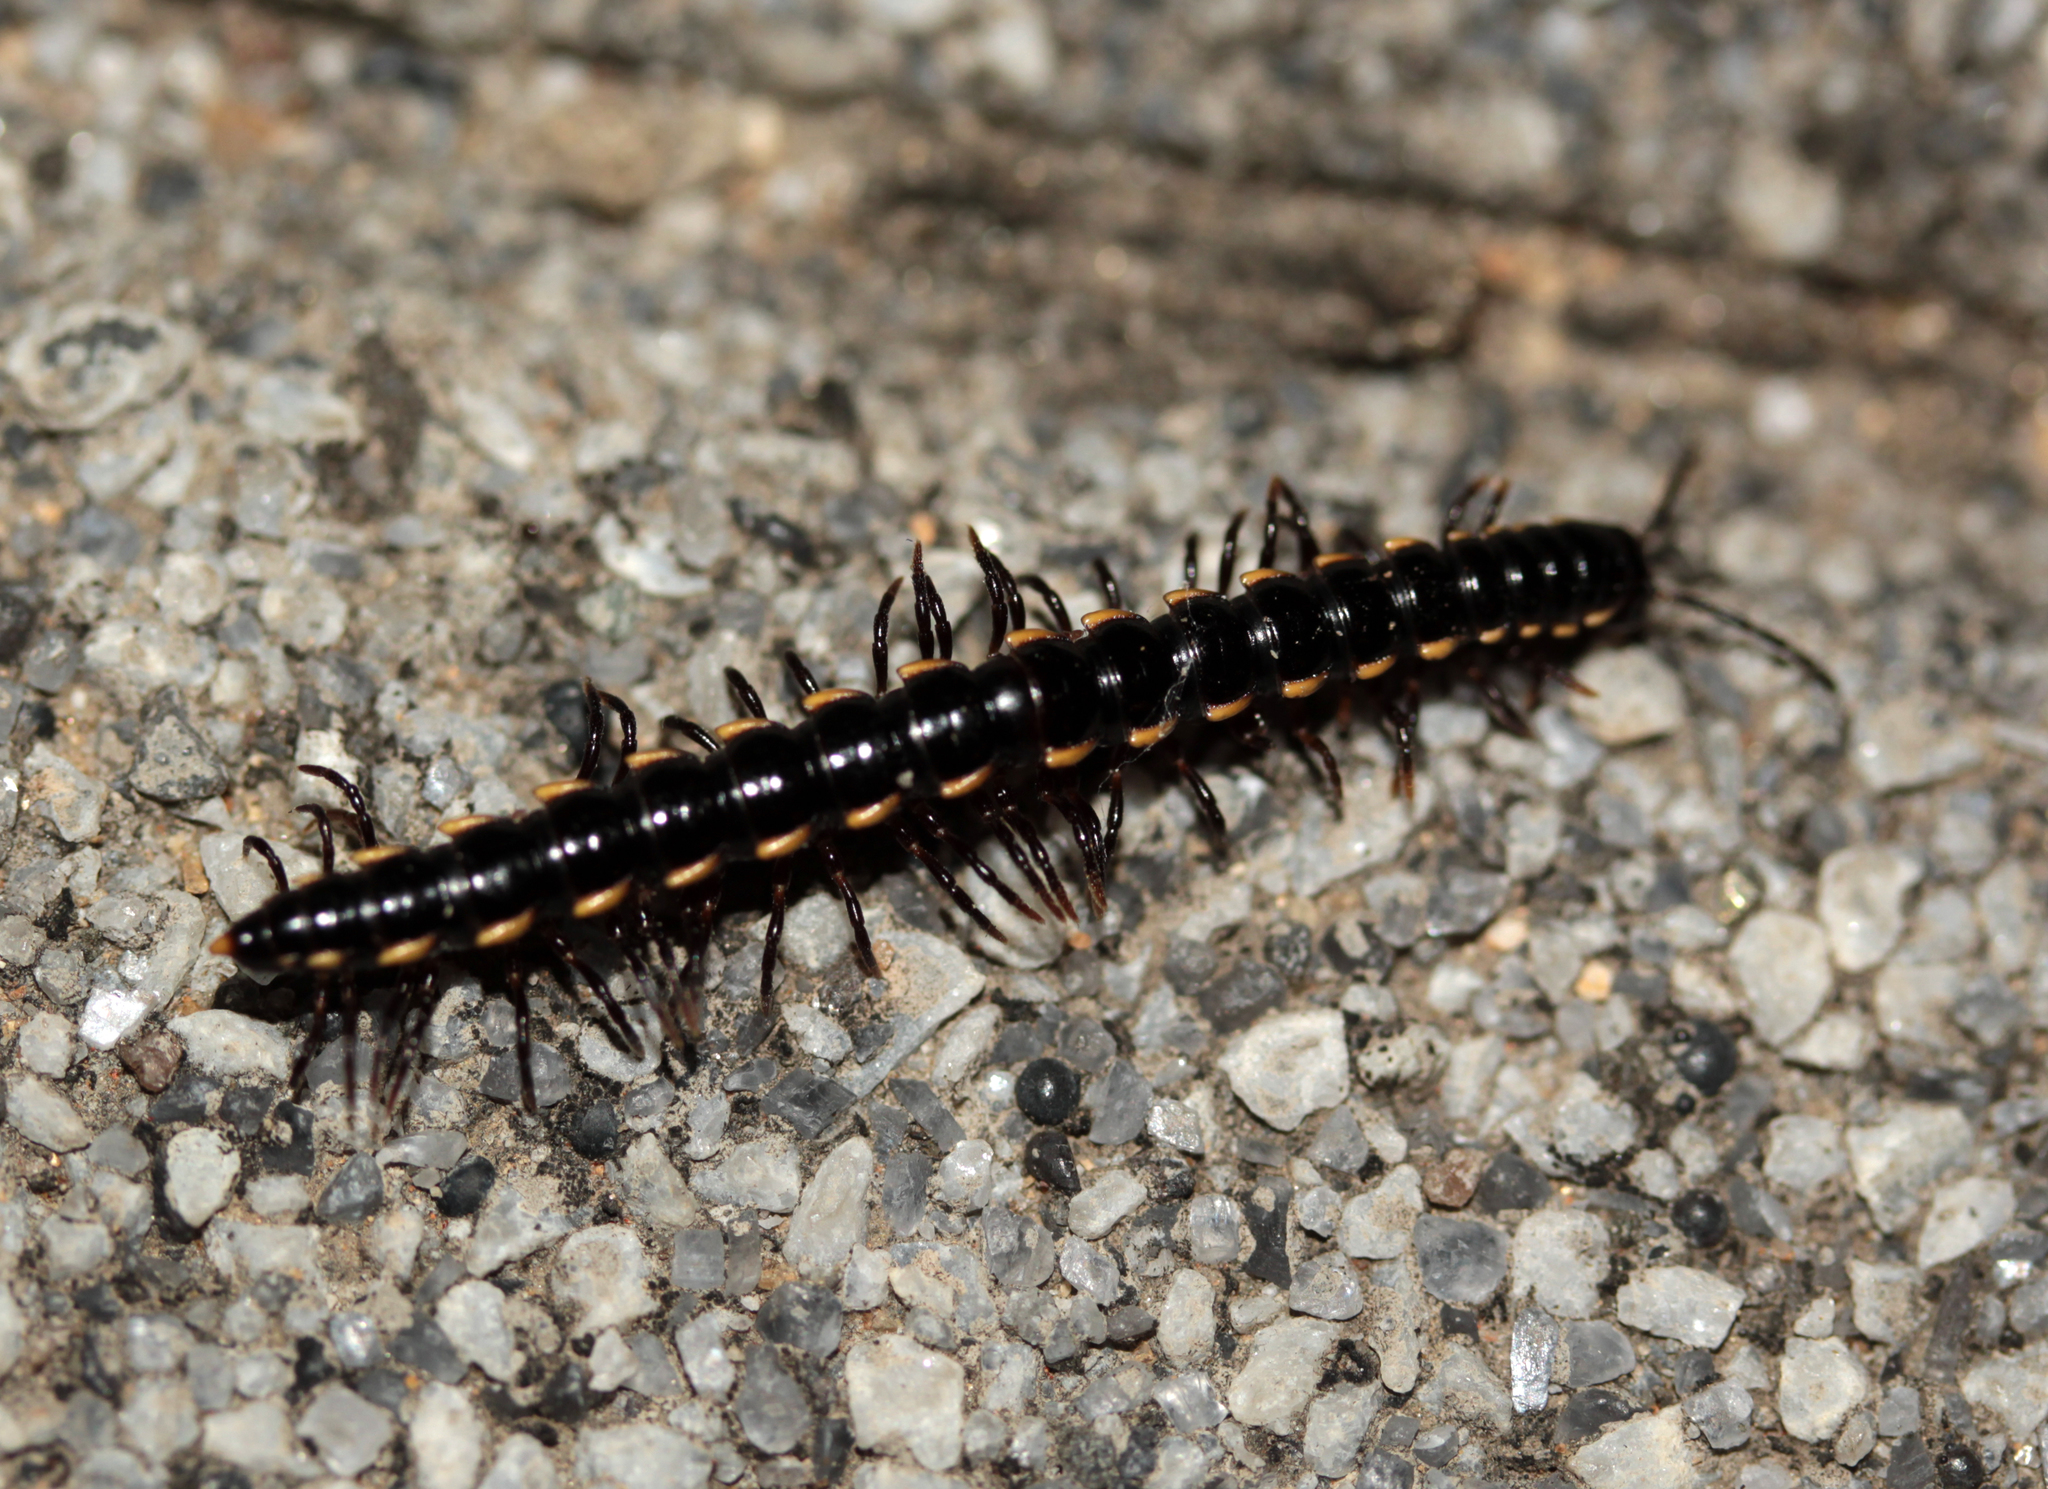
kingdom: Animalia
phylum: Arthropoda
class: Diplopoda
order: Polydesmida
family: Paradoxosomatidae
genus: Orthomorphella
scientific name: Orthomorphella pekuensis
